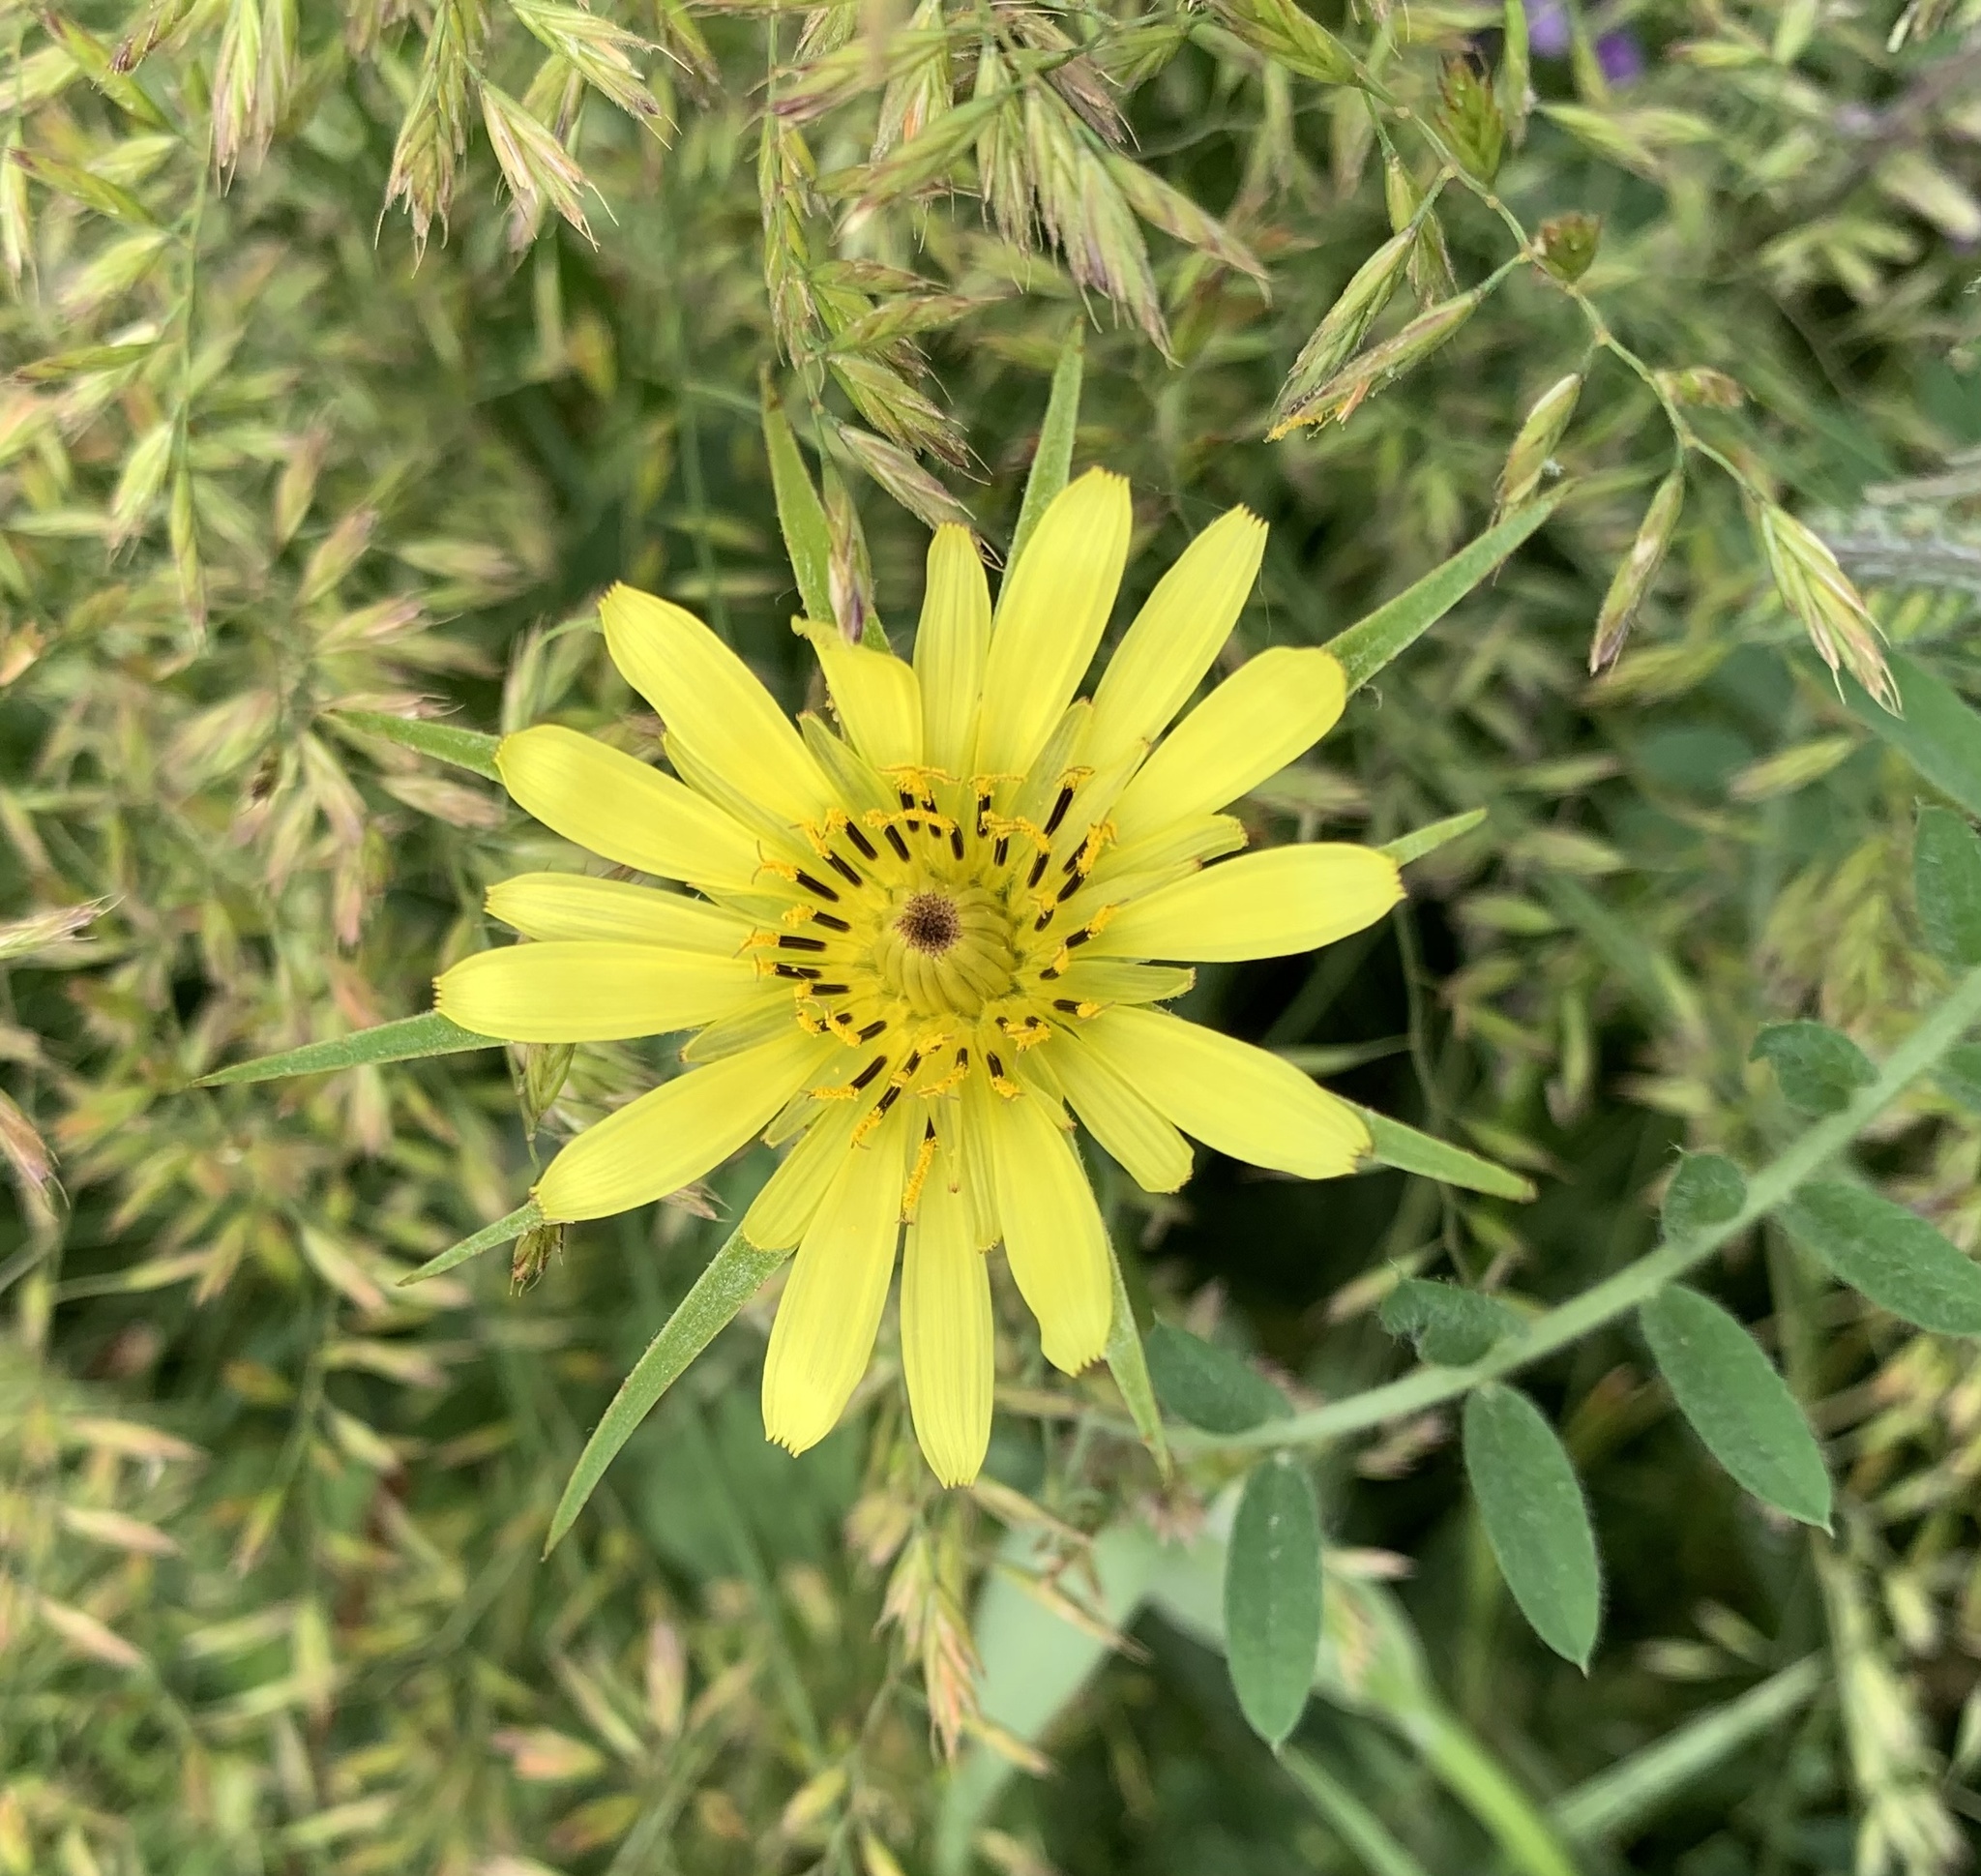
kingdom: Plantae
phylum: Tracheophyta
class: Magnoliopsida
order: Asterales
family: Asteraceae
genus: Tragopogon
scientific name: Tragopogon dubius
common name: Yellow salsify
